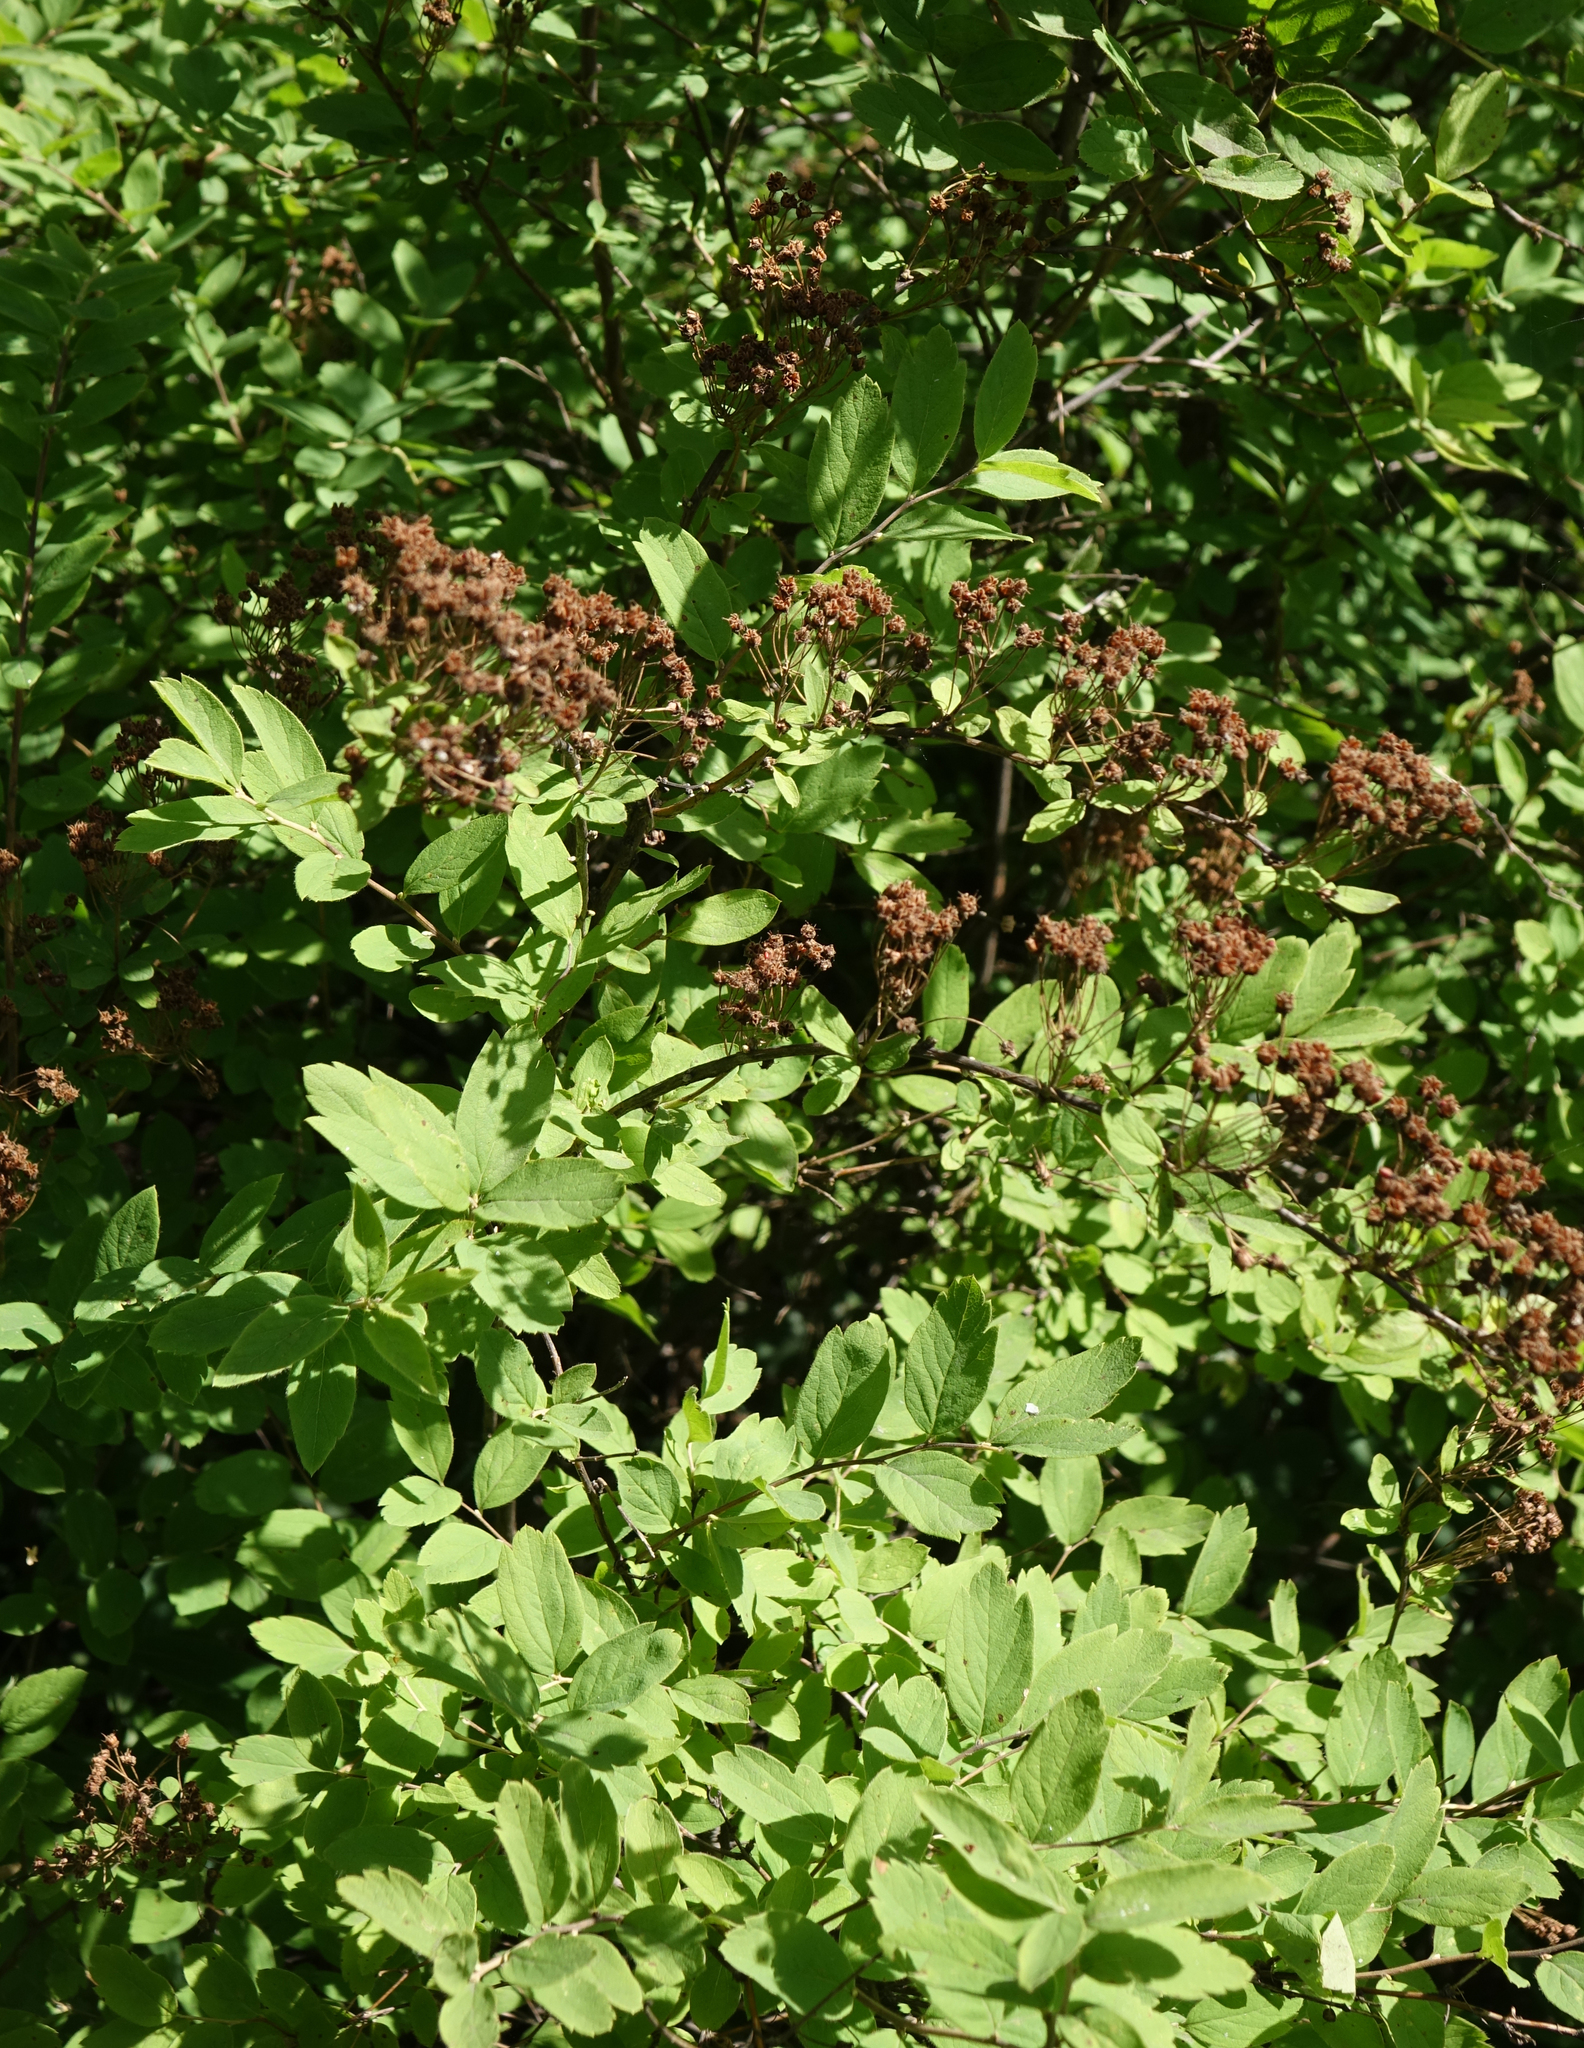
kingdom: Plantae
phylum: Tracheophyta
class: Magnoliopsida
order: Rosales
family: Rosaceae
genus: Spiraea
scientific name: Spiraea media
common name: Russian spiraea
